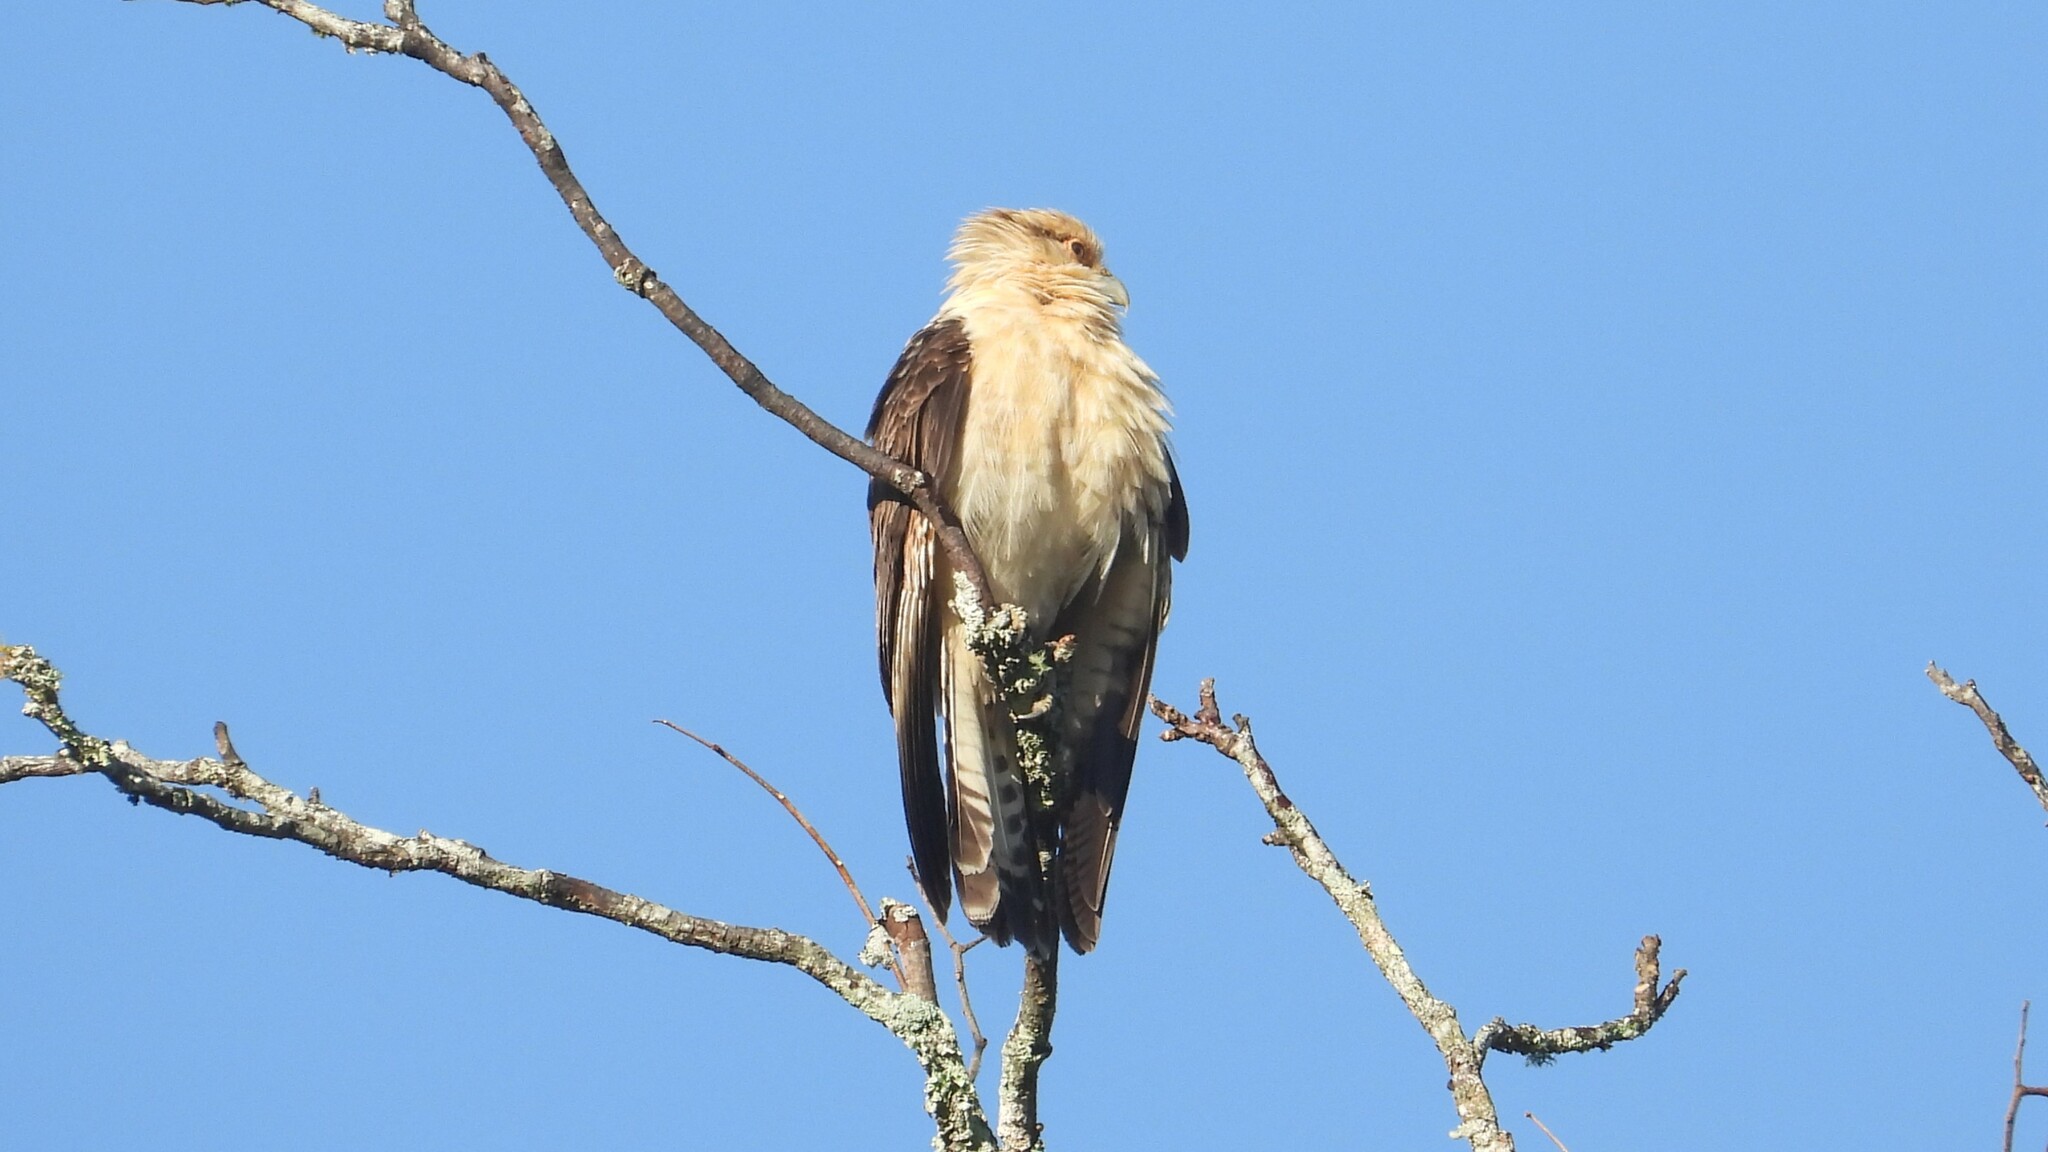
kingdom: Animalia
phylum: Chordata
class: Aves
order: Falconiformes
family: Falconidae
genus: Daptrius
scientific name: Daptrius
